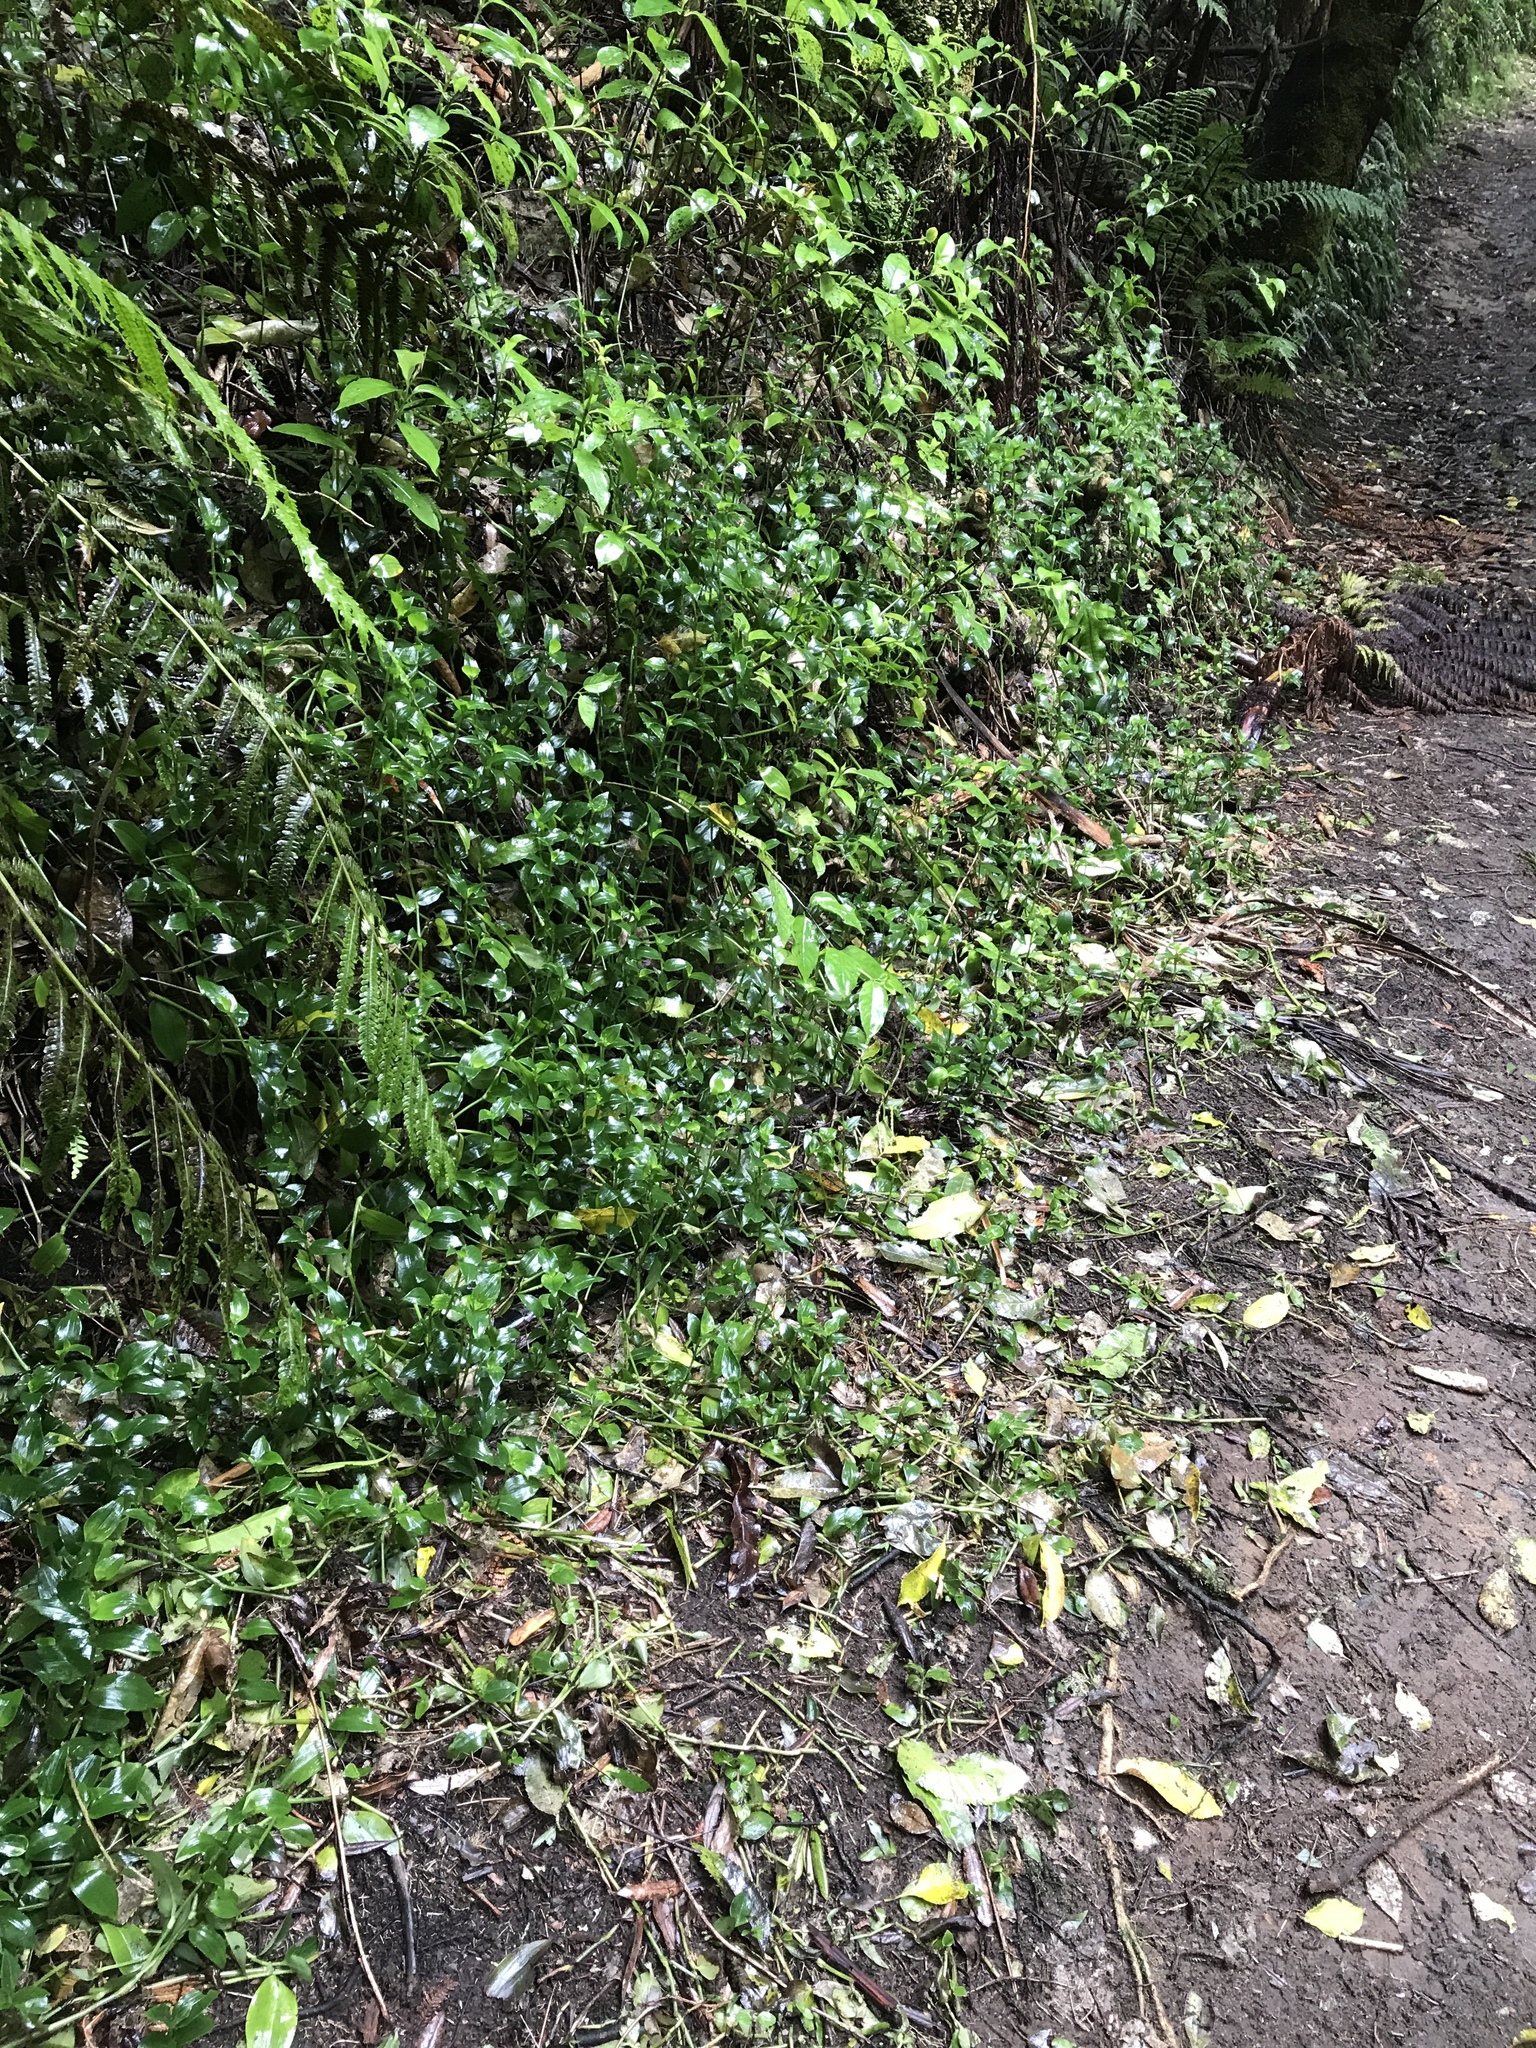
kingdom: Plantae
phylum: Tracheophyta
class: Liliopsida
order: Commelinales
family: Commelinaceae
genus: Tradescantia
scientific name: Tradescantia fluminensis
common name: Wandering-jew
